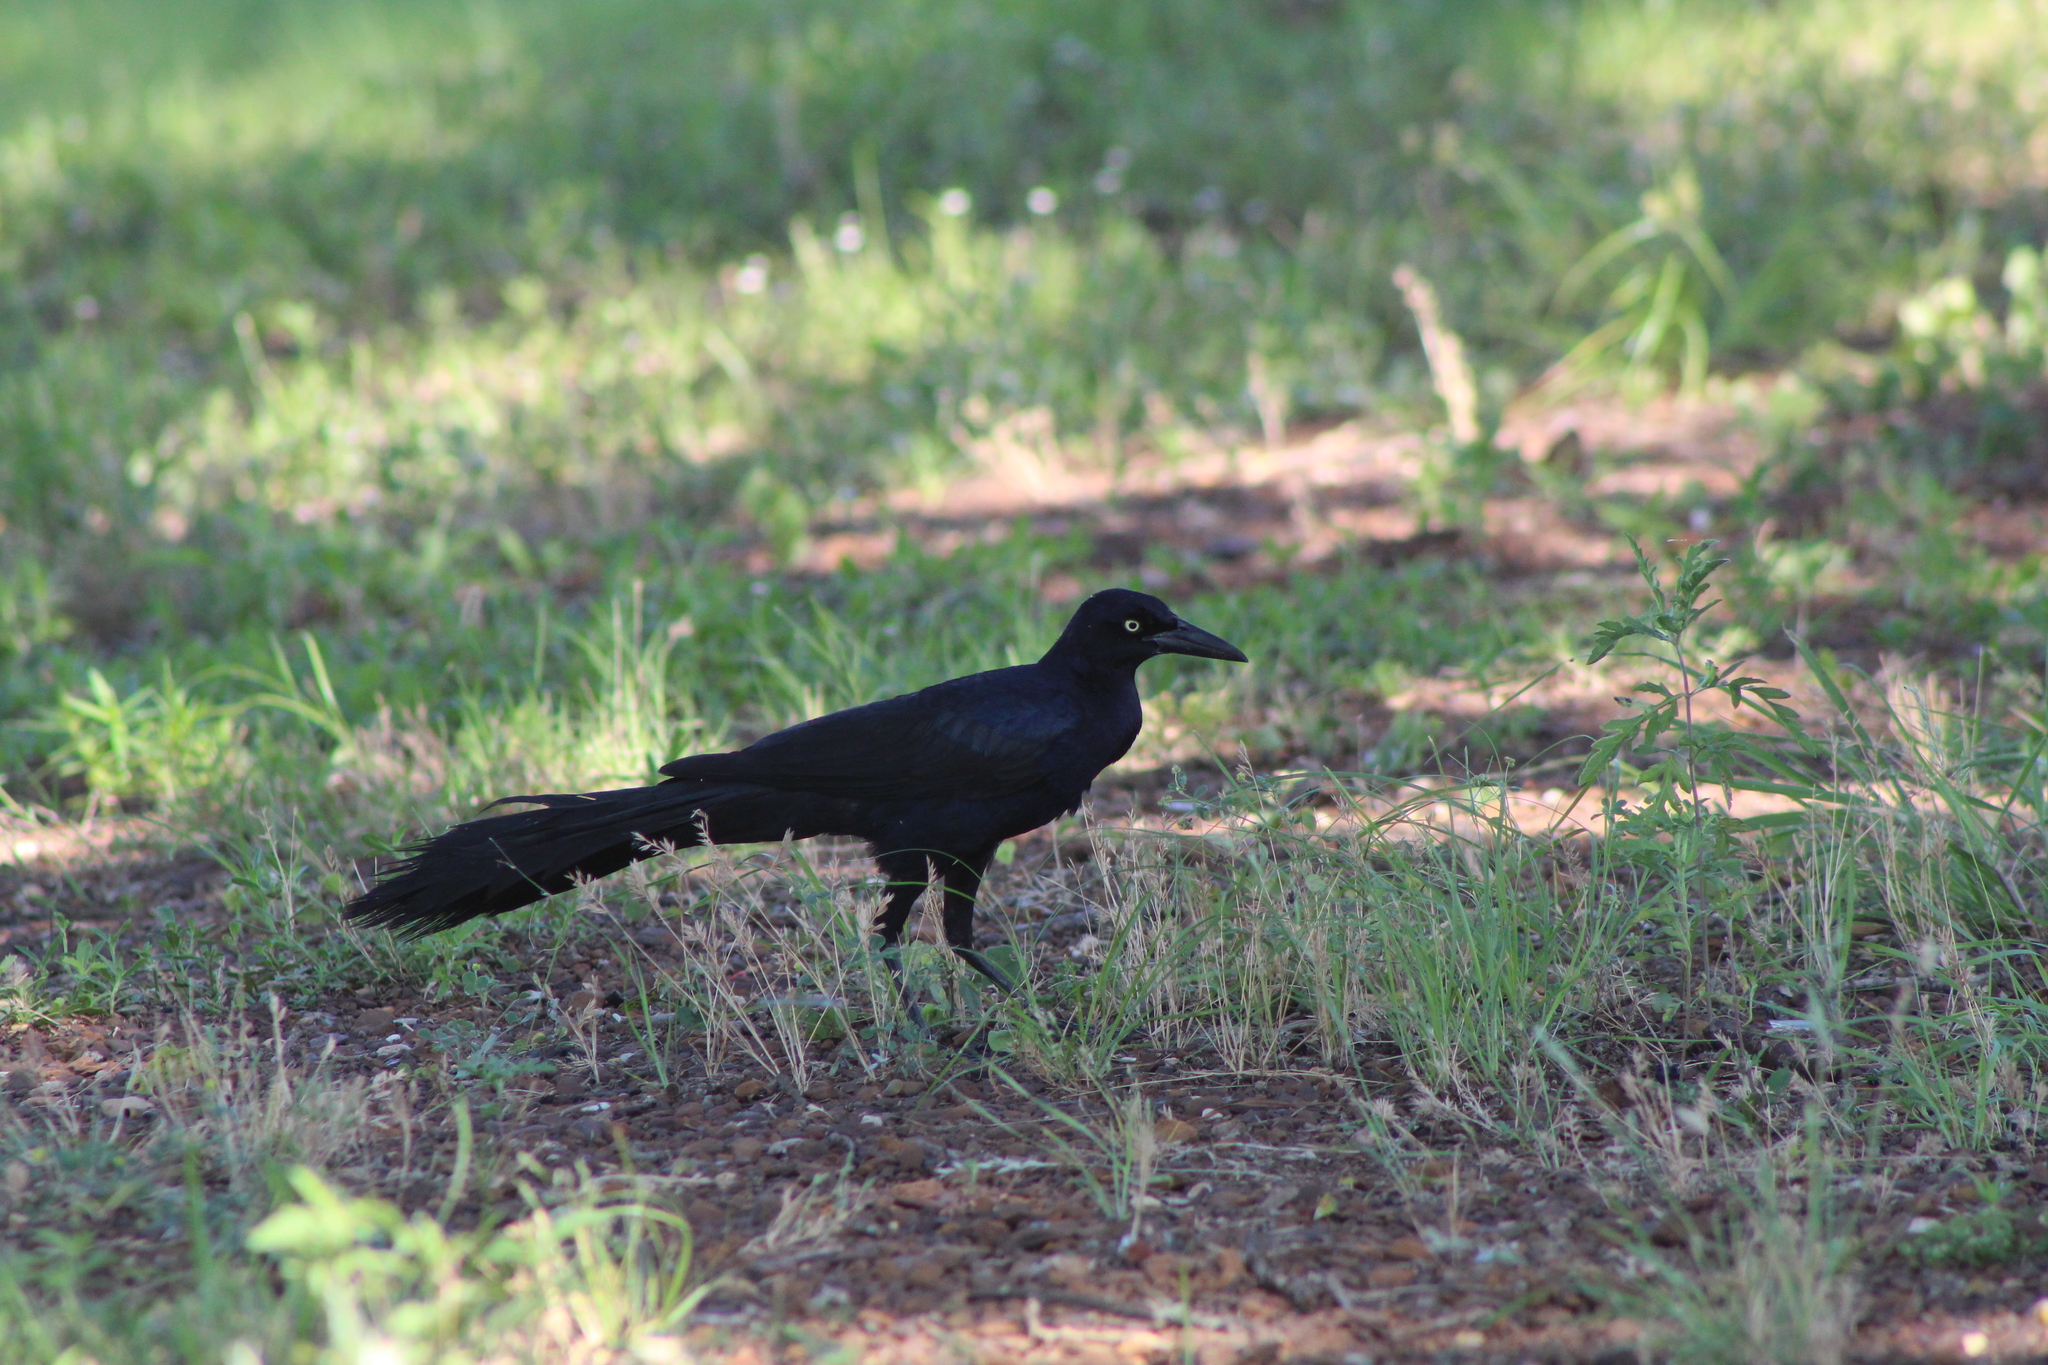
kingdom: Animalia
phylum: Chordata
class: Aves
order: Passeriformes
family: Icteridae
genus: Quiscalus
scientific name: Quiscalus mexicanus
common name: Great-tailed grackle
